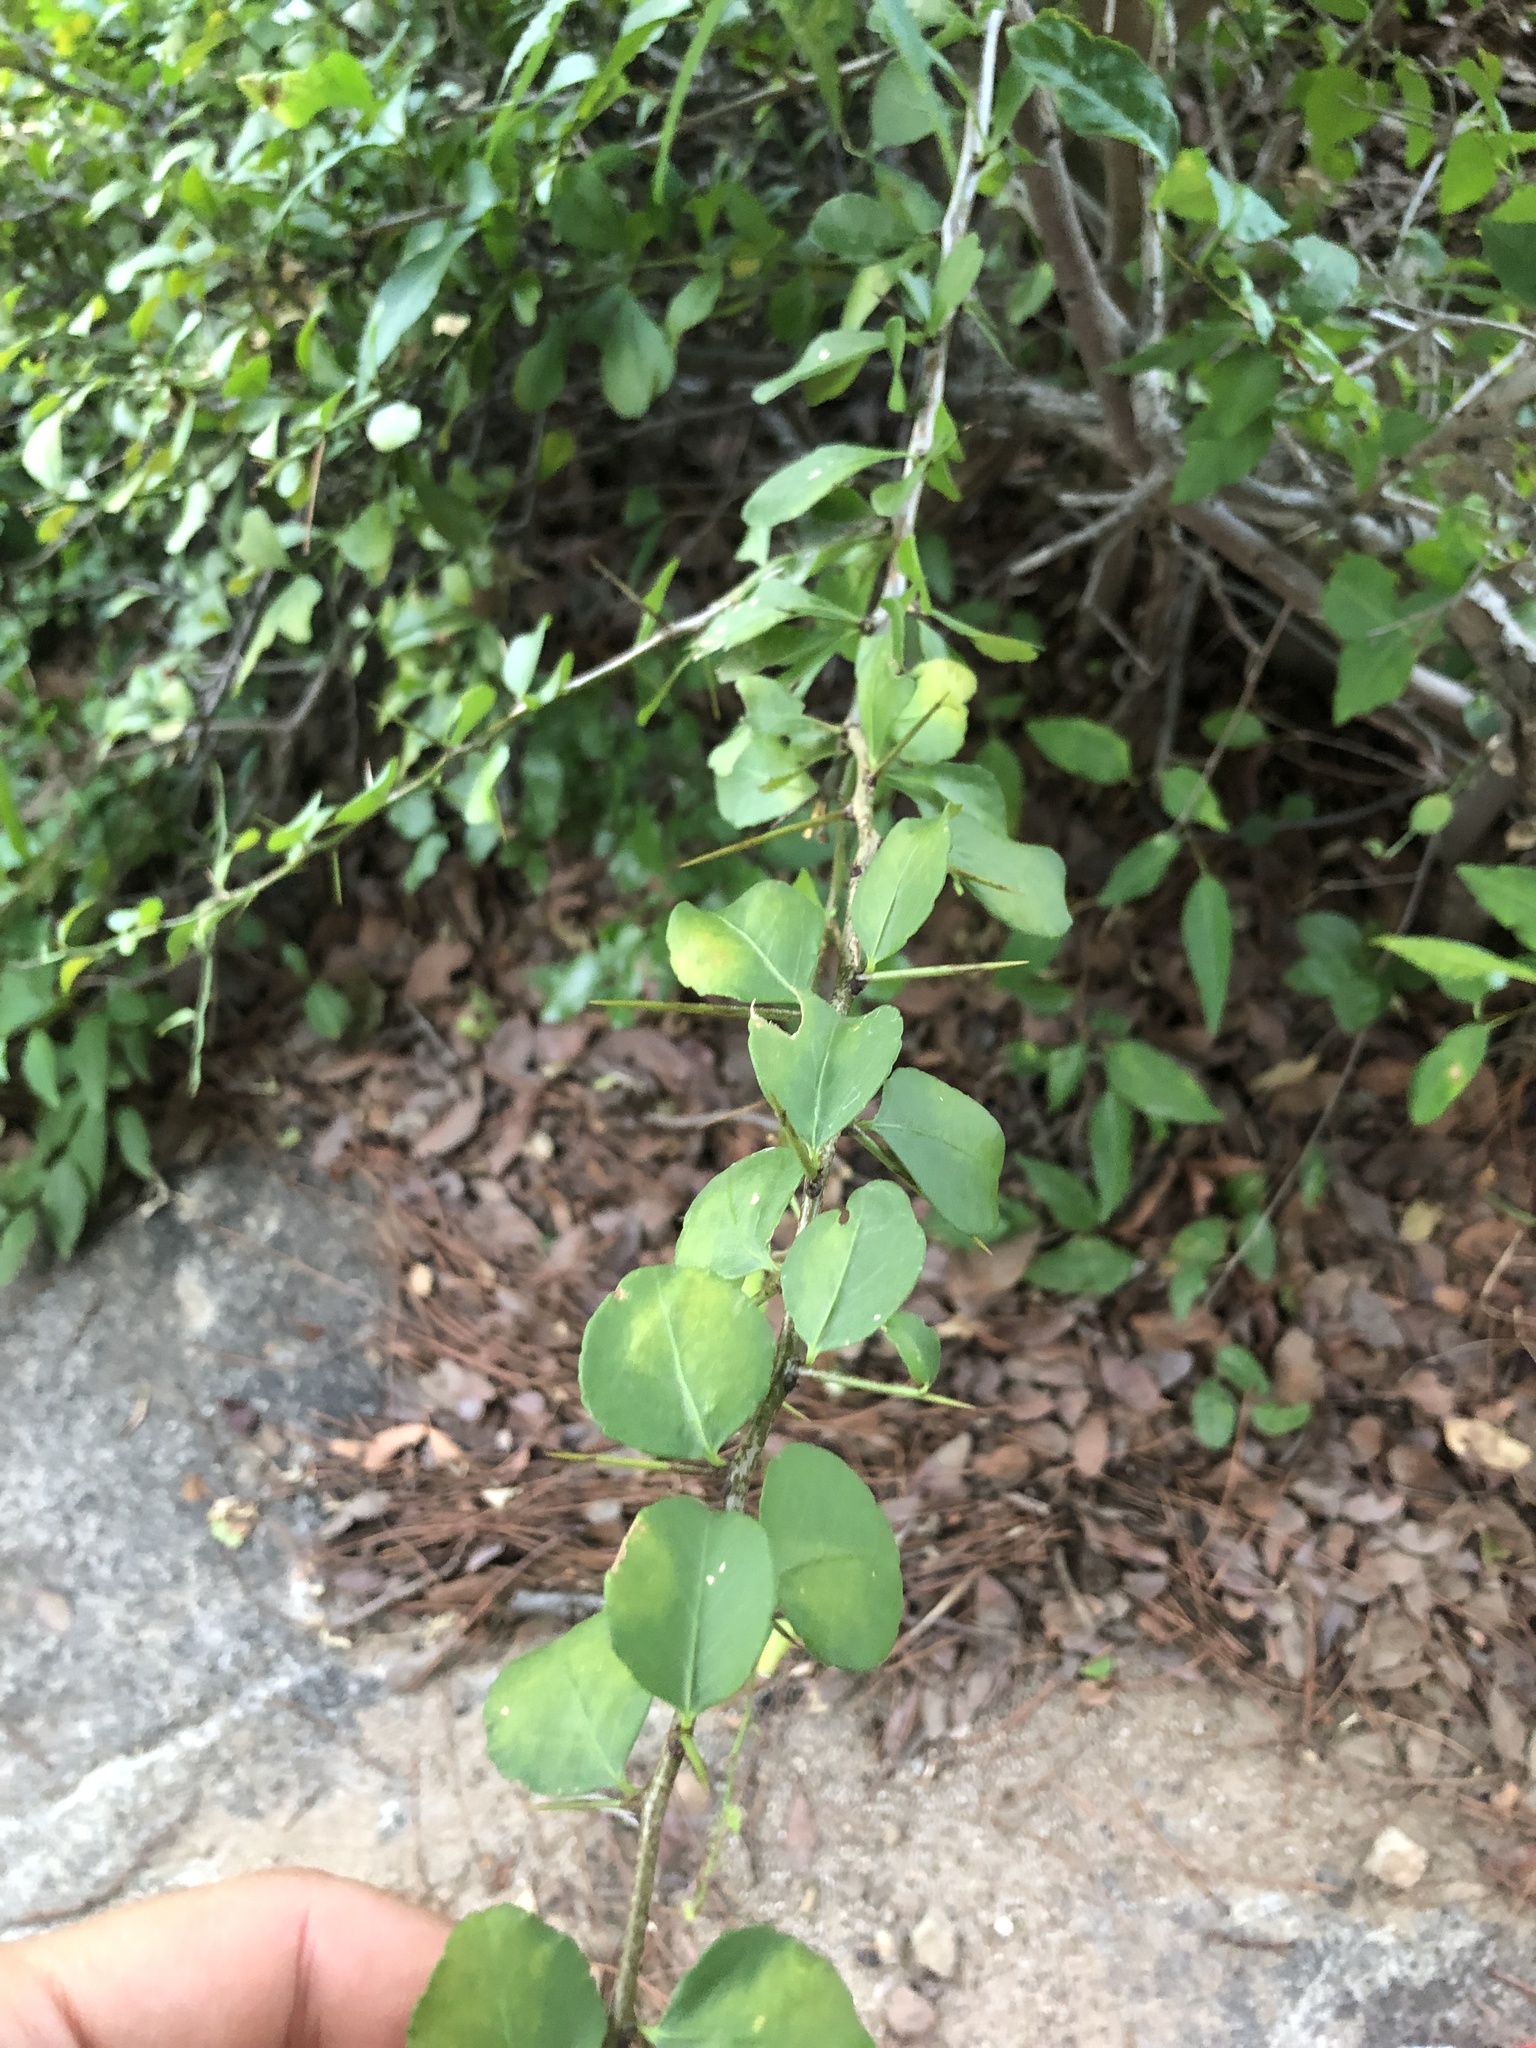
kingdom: Plantae
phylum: Tracheophyta
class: Magnoliopsida
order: Celastrales
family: Celastraceae
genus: Gymnosporia
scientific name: Gymnosporia macrocarpa
